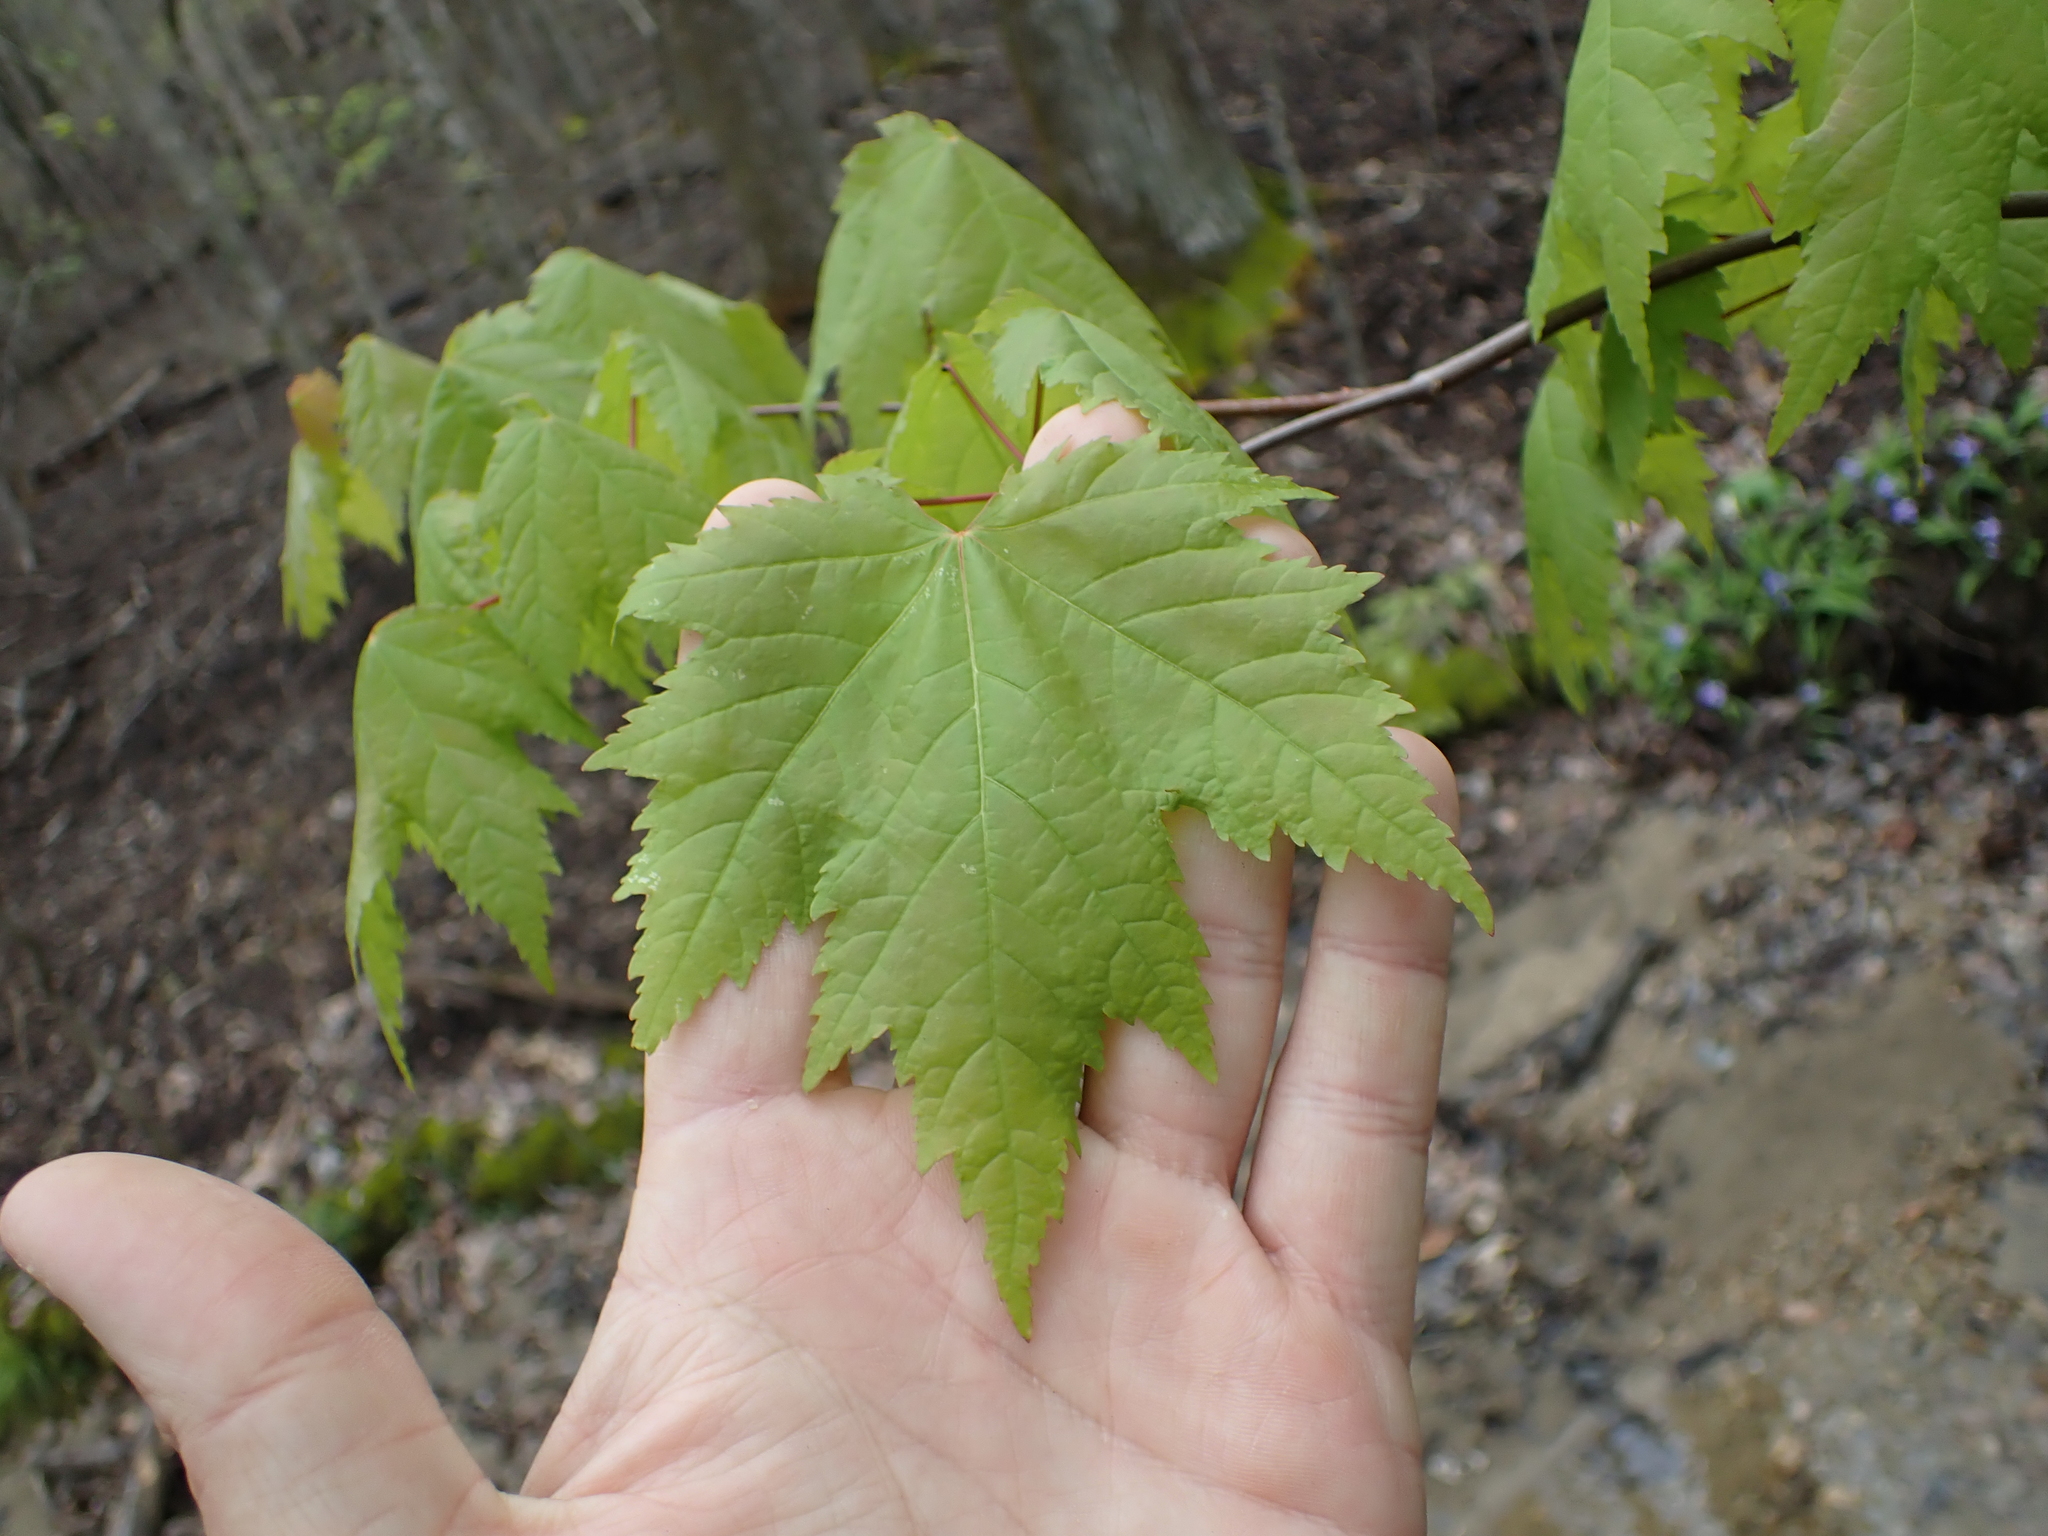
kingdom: Plantae
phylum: Tracheophyta
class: Magnoliopsida
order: Sapindales
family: Sapindaceae
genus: Acer
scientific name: Acer rubrum
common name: Red maple
